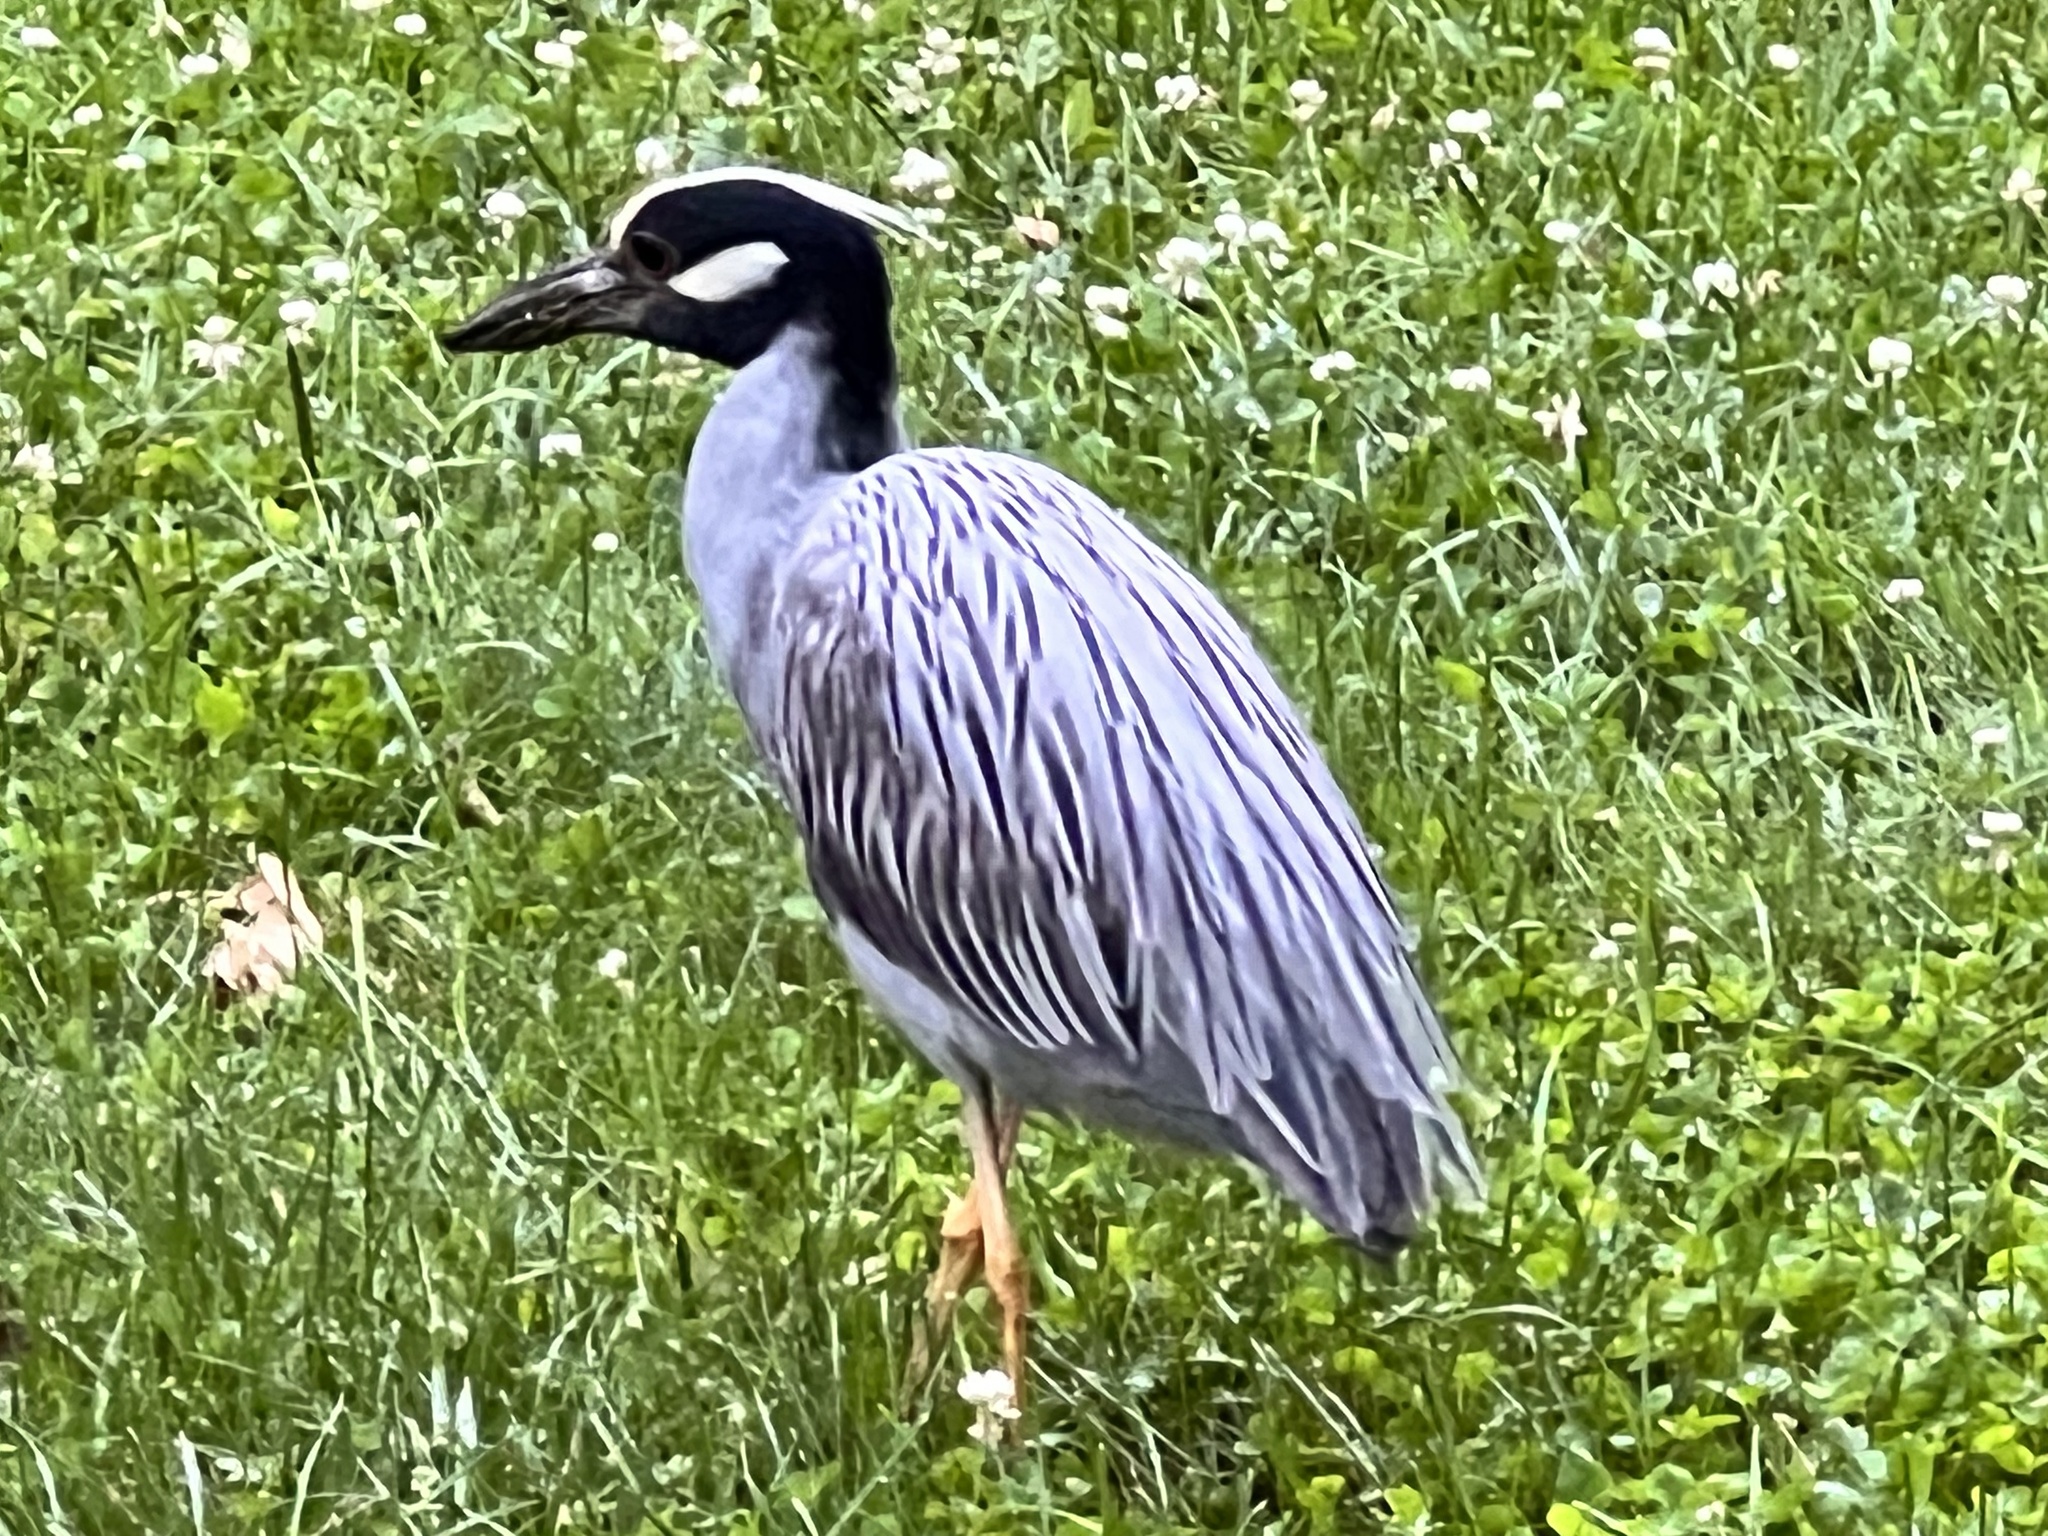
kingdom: Animalia
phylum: Chordata
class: Aves
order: Pelecaniformes
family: Ardeidae
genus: Nyctanassa
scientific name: Nyctanassa violacea
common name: Yellow-crowned night heron
